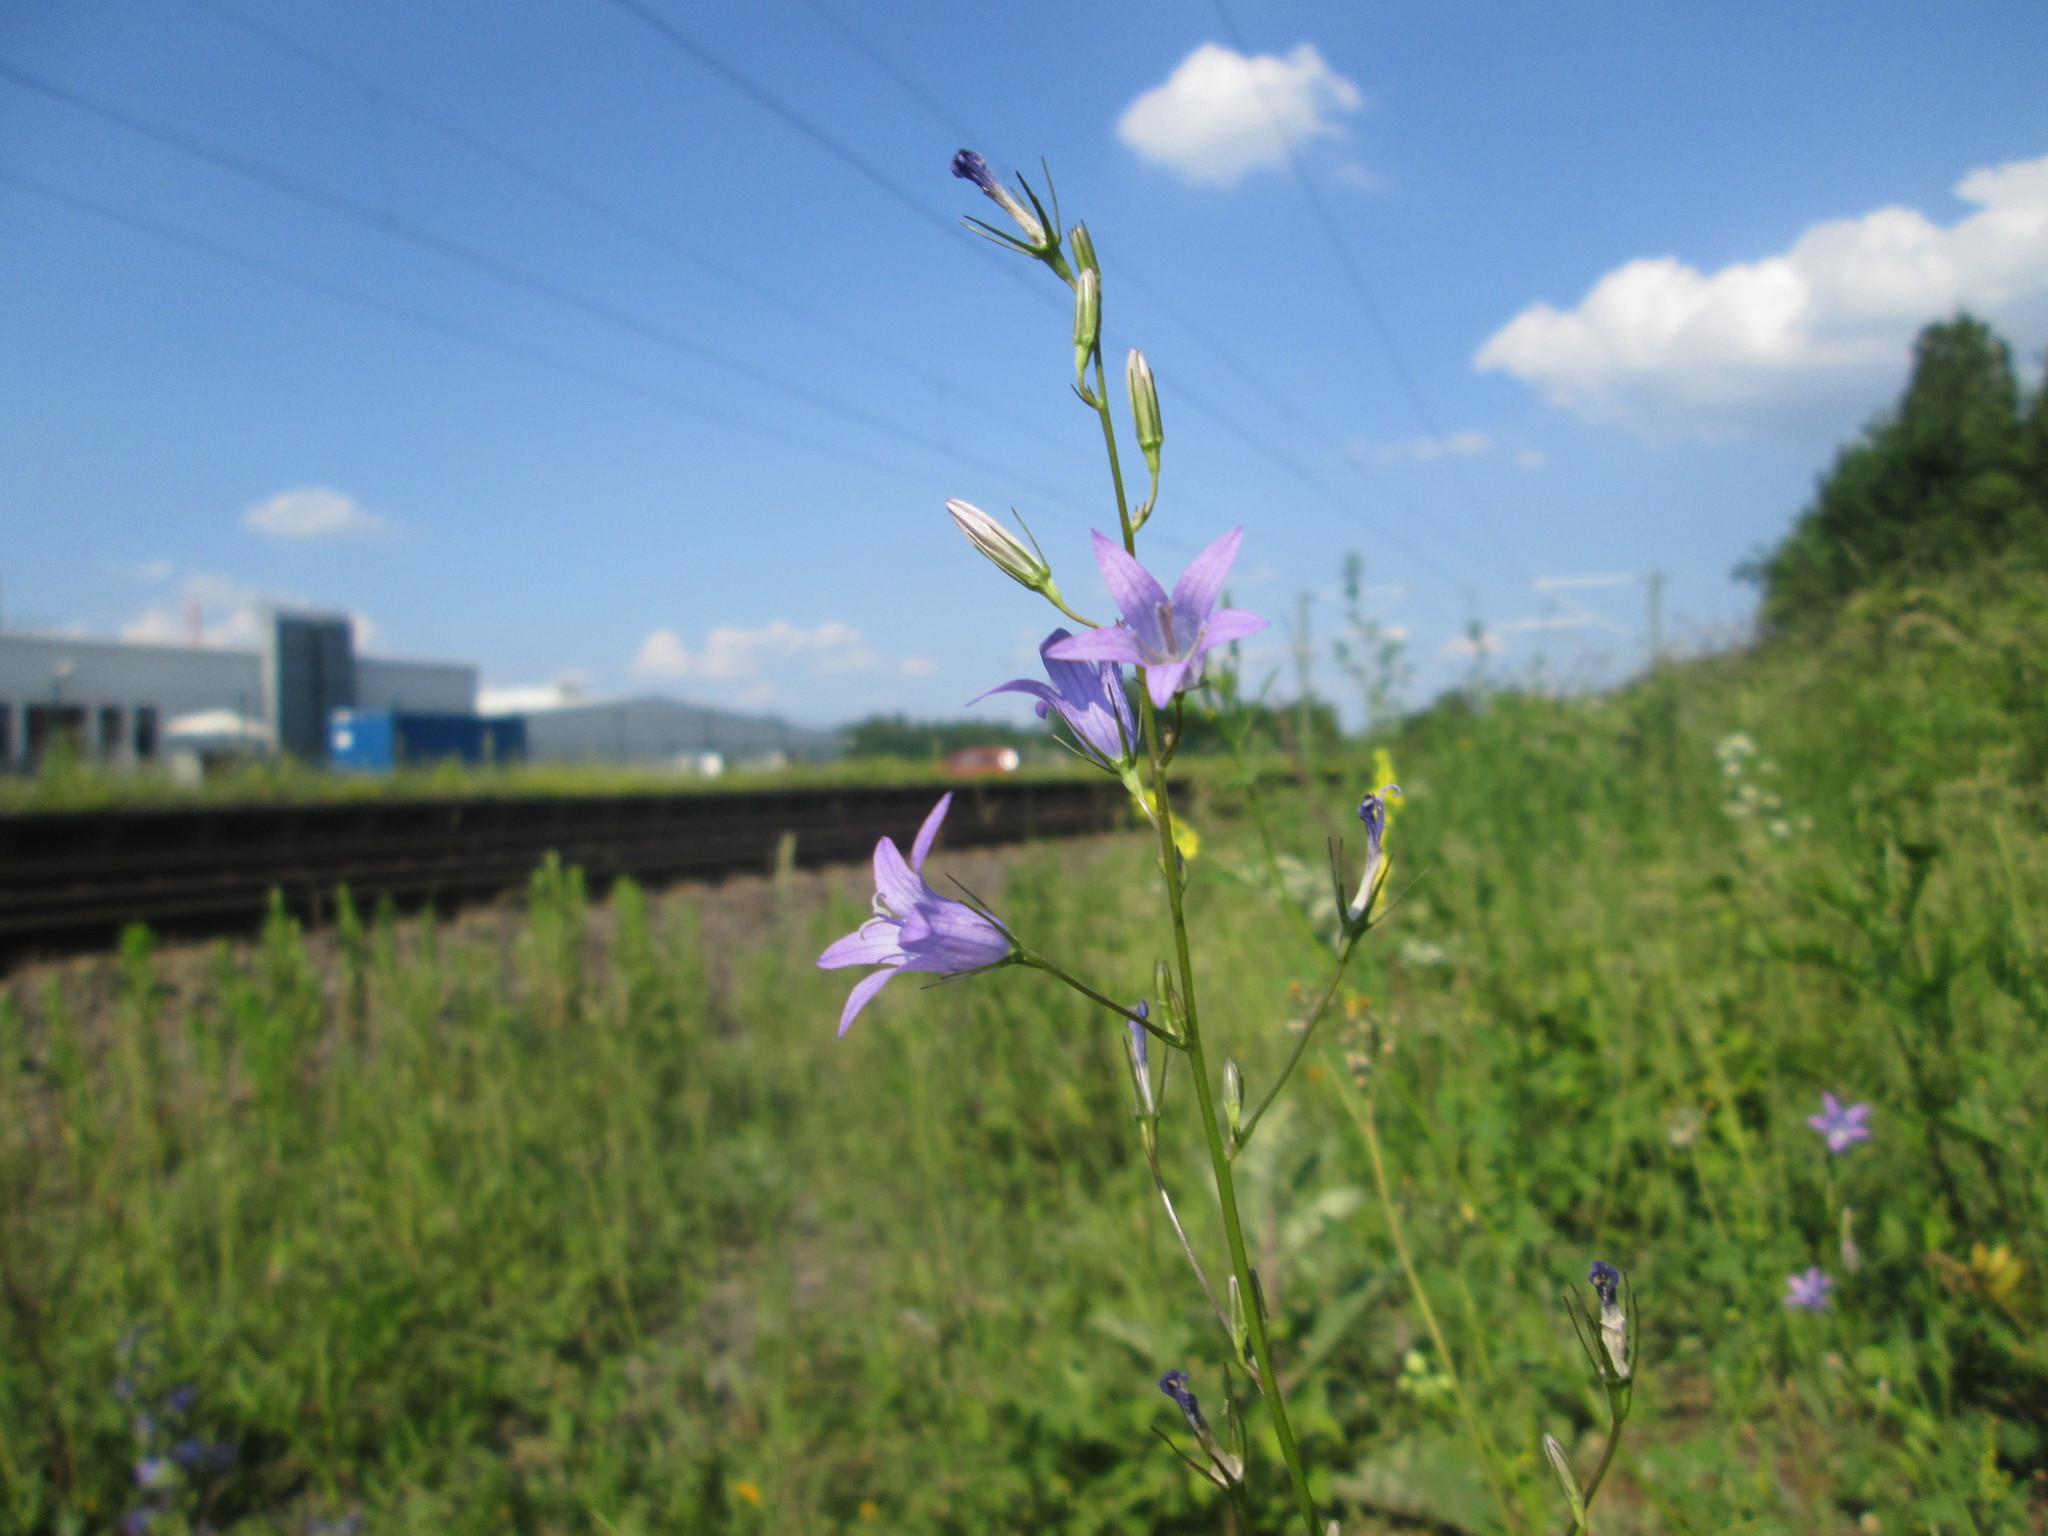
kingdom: Plantae
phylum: Tracheophyta
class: Magnoliopsida
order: Asterales
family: Campanulaceae
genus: Campanula
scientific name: Campanula rapunculus
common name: Rampion bellflower
